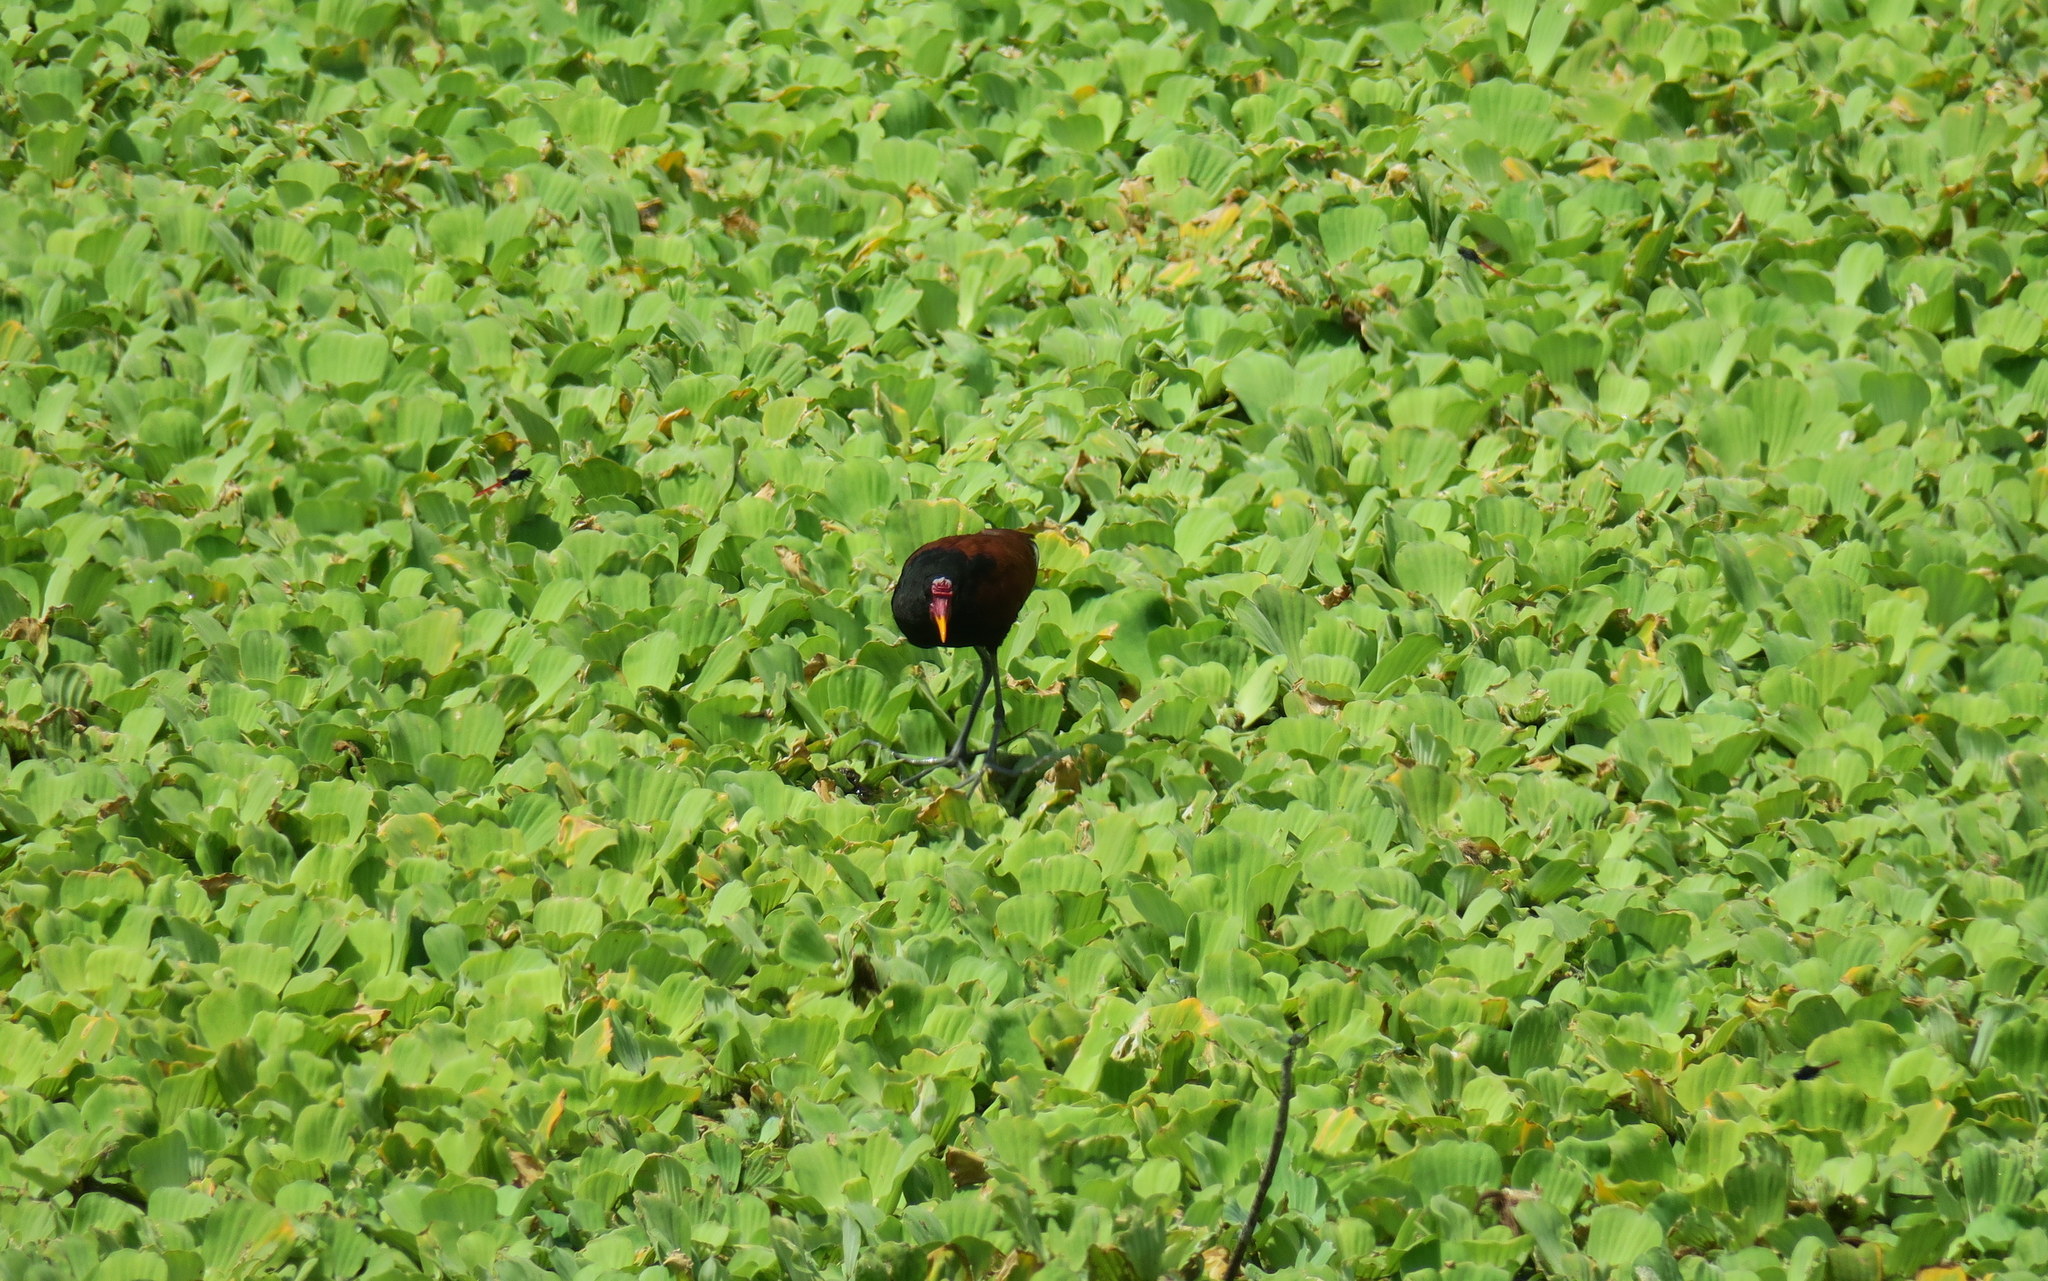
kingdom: Animalia
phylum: Chordata
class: Aves
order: Charadriiformes
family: Jacanidae
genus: Jacana
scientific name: Jacana jacana
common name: Wattled jacana
